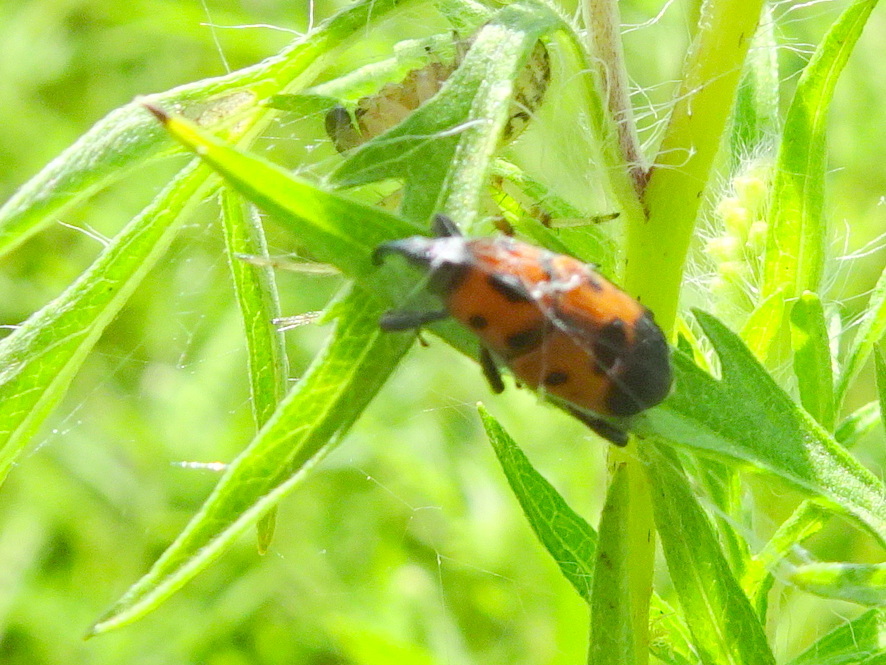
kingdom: Animalia
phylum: Arthropoda
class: Insecta
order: Coleoptera
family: Dryophthoridae
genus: Rhodobaenus
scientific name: Rhodobaenus quinquepunctatus
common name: Cocklebur weevil
